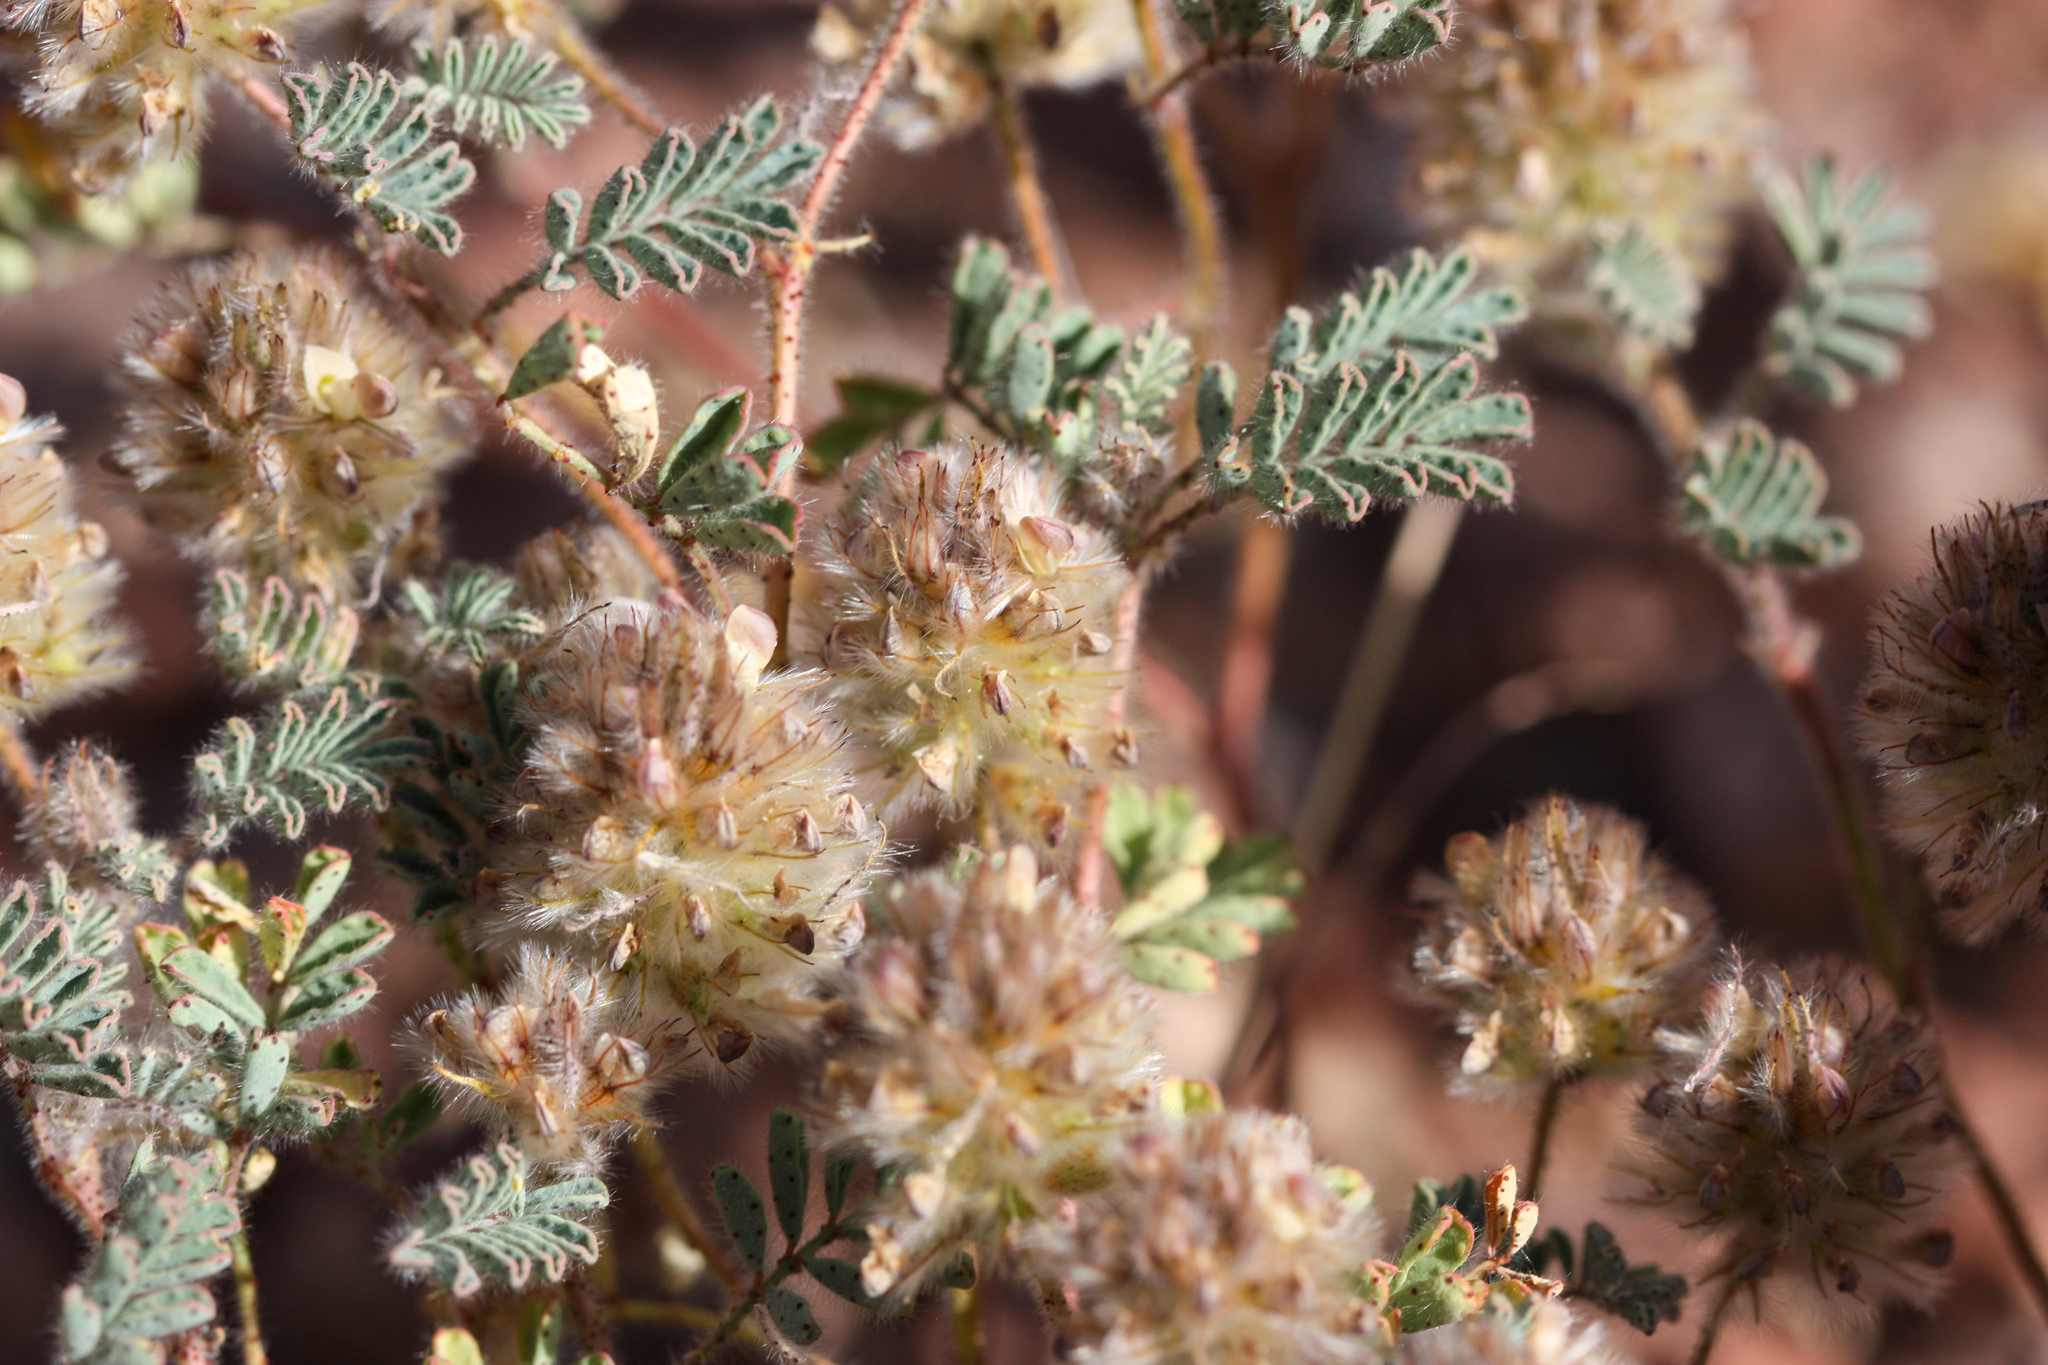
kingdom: Plantae
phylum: Tracheophyta
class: Magnoliopsida
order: Fabales
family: Fabaceae
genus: Dalea
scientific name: Dalea mollis
